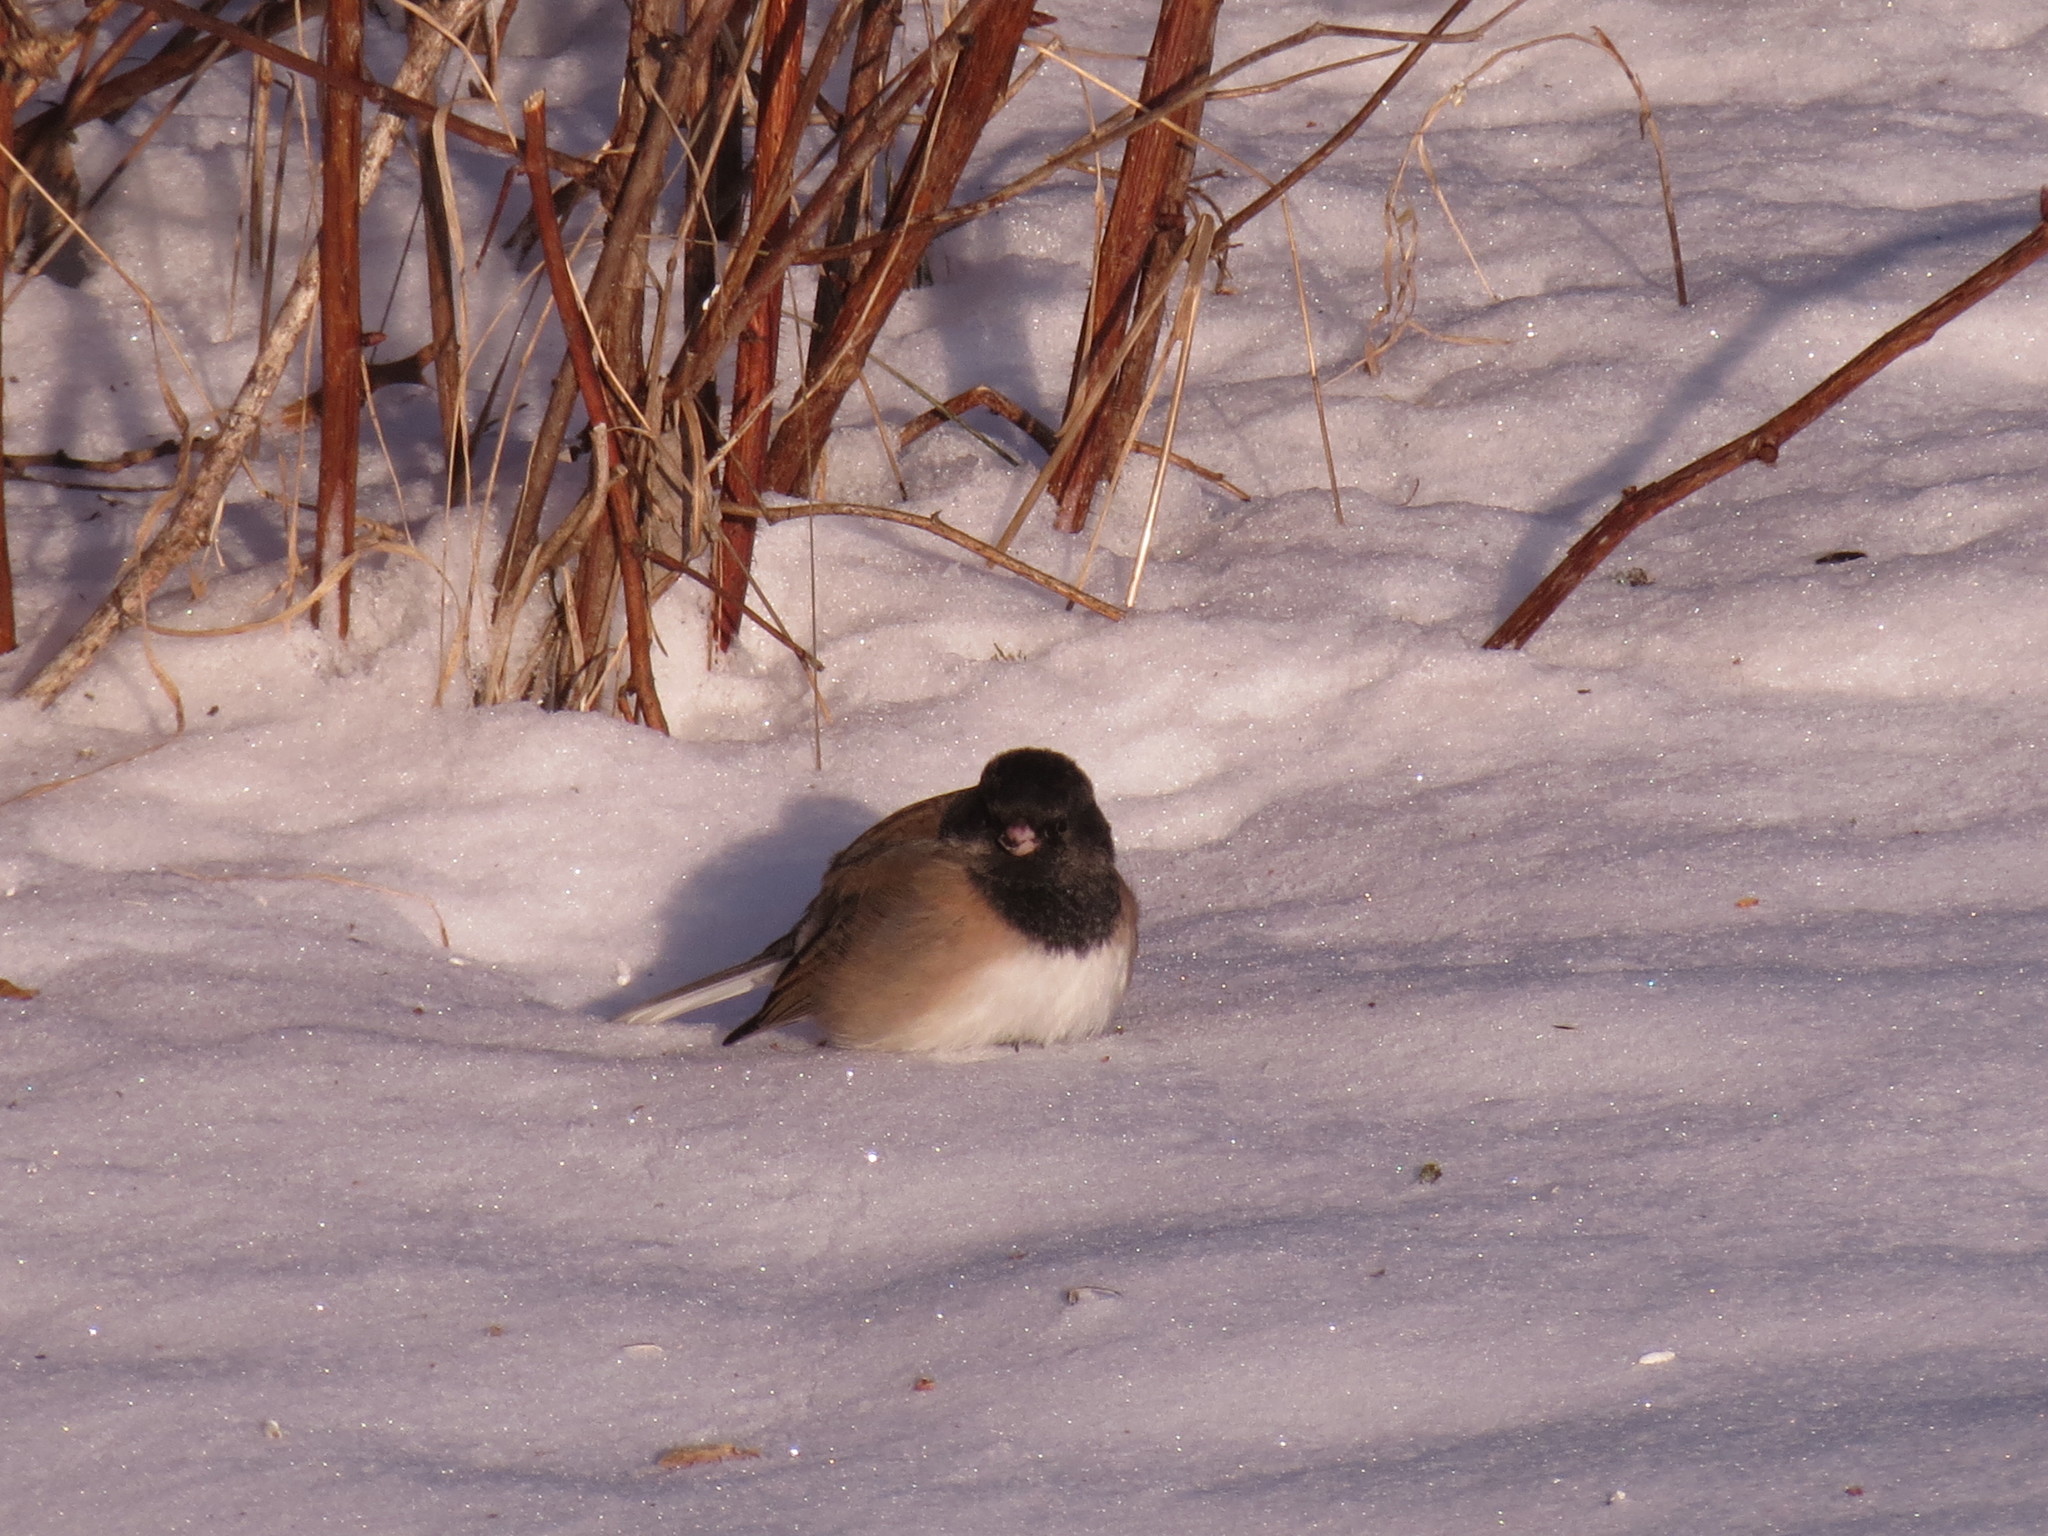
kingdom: Animalia
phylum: Chordata
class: Aves
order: Passeriformes
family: Passerellidae
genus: Junco
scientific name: Junco hyemalis
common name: Dark-eyed junco
